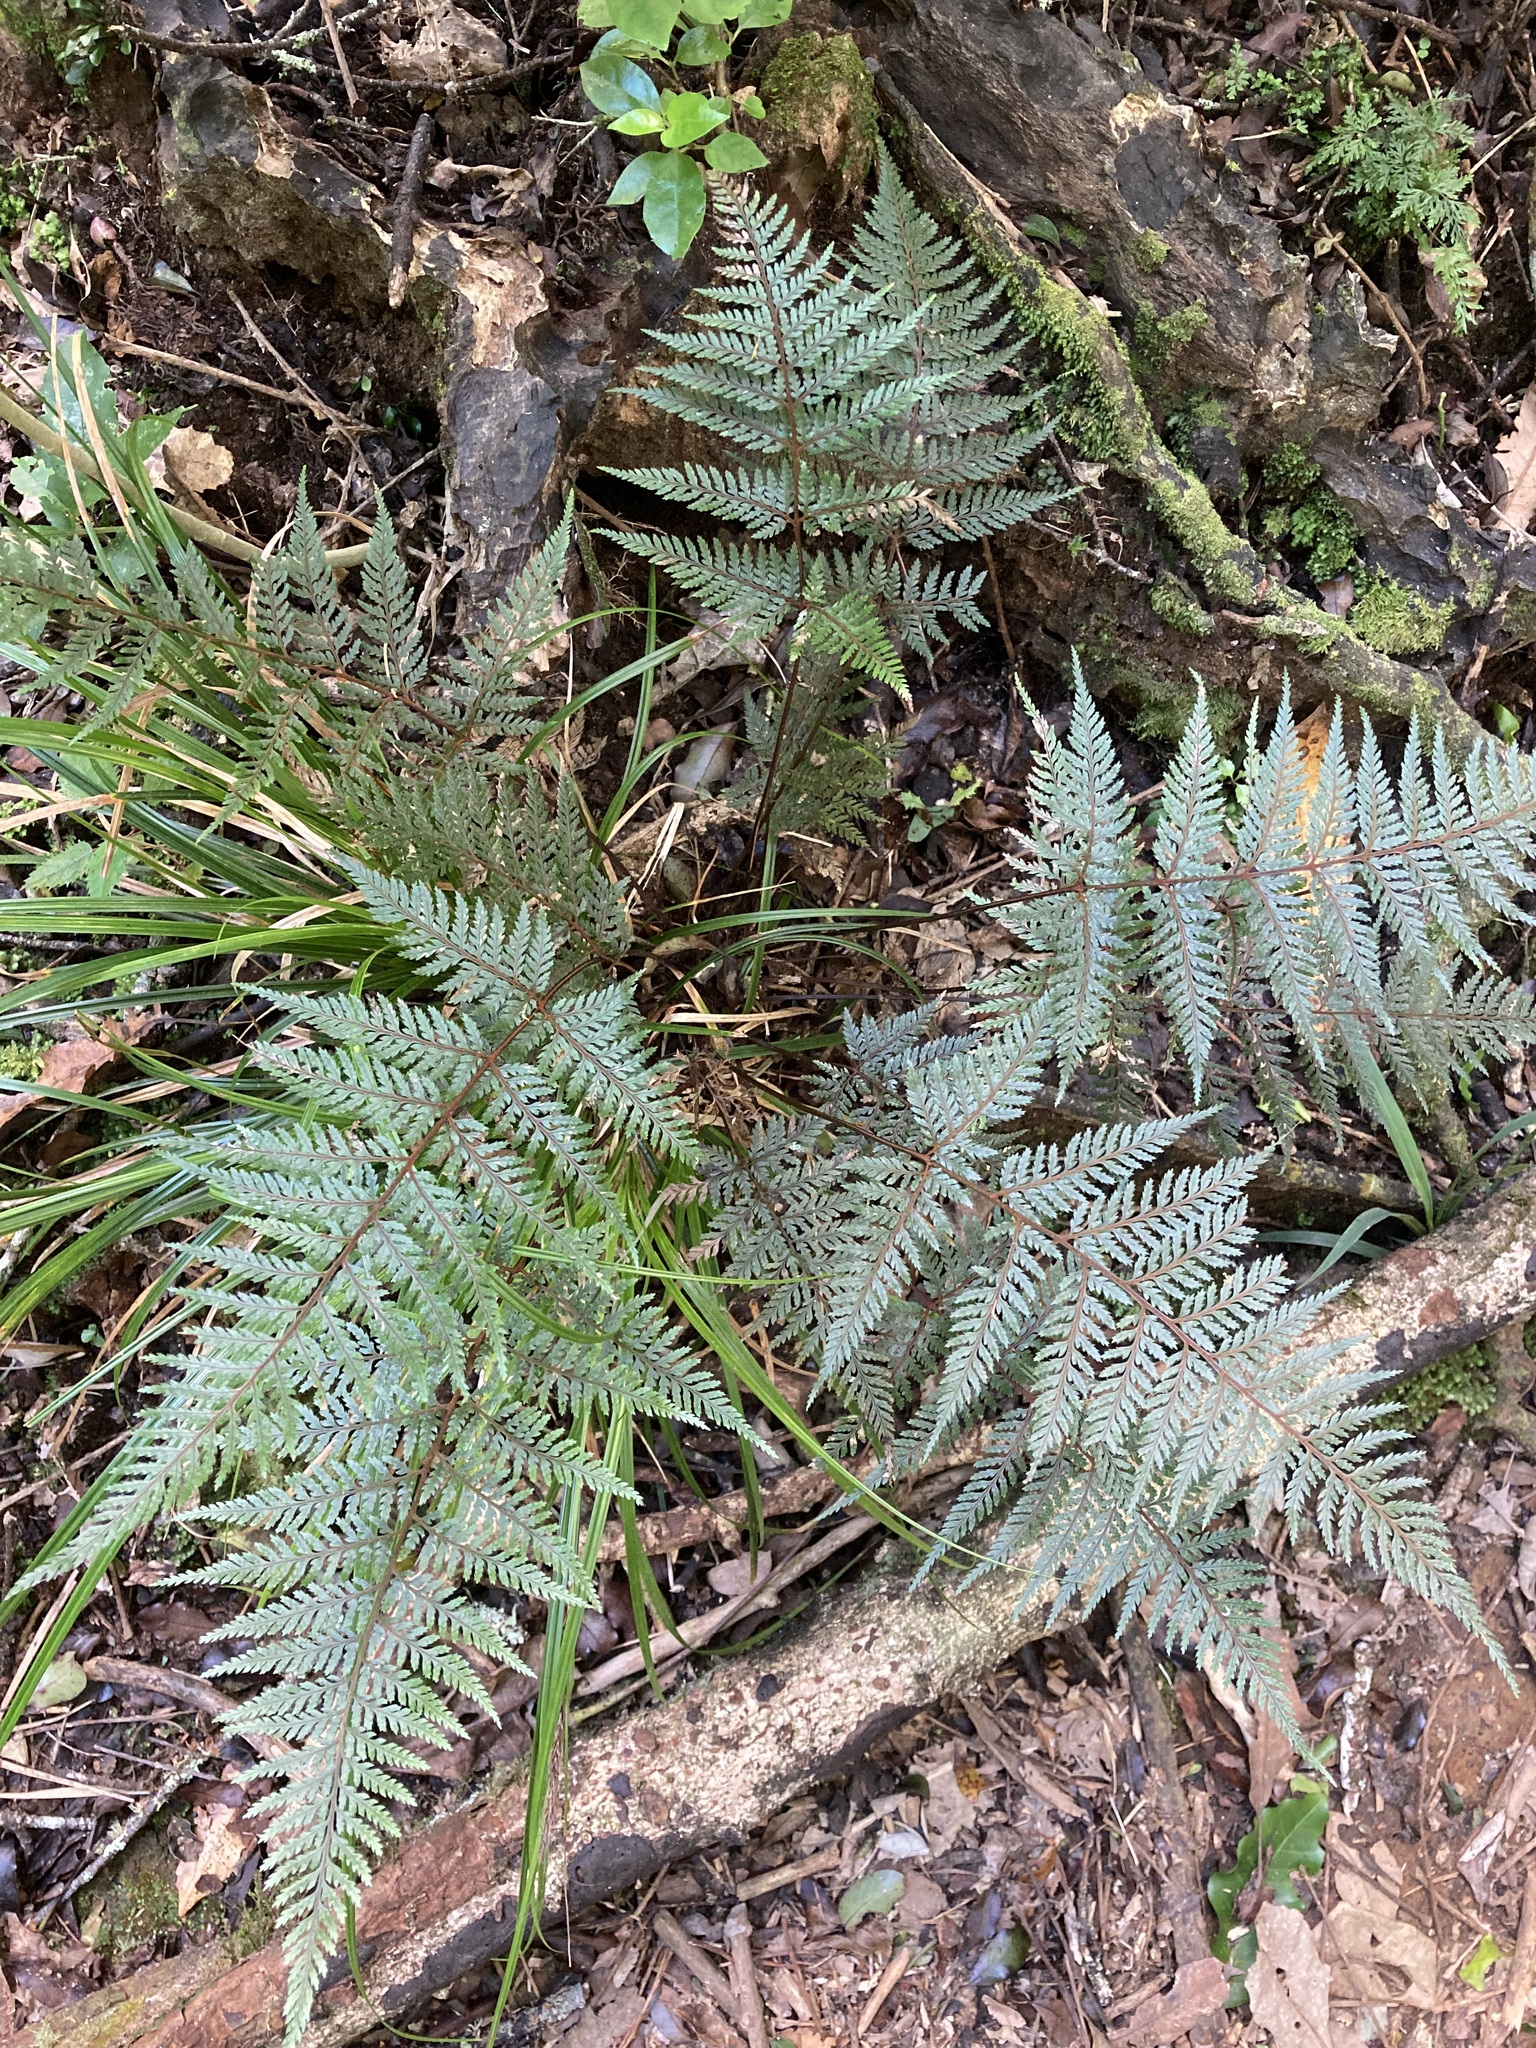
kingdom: Plantae
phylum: Tracheophyta
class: Polypodiopsida
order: Polypodiales
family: Dryopteridaceae
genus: Parapolystichum
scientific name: Parapolystichum glabellum
